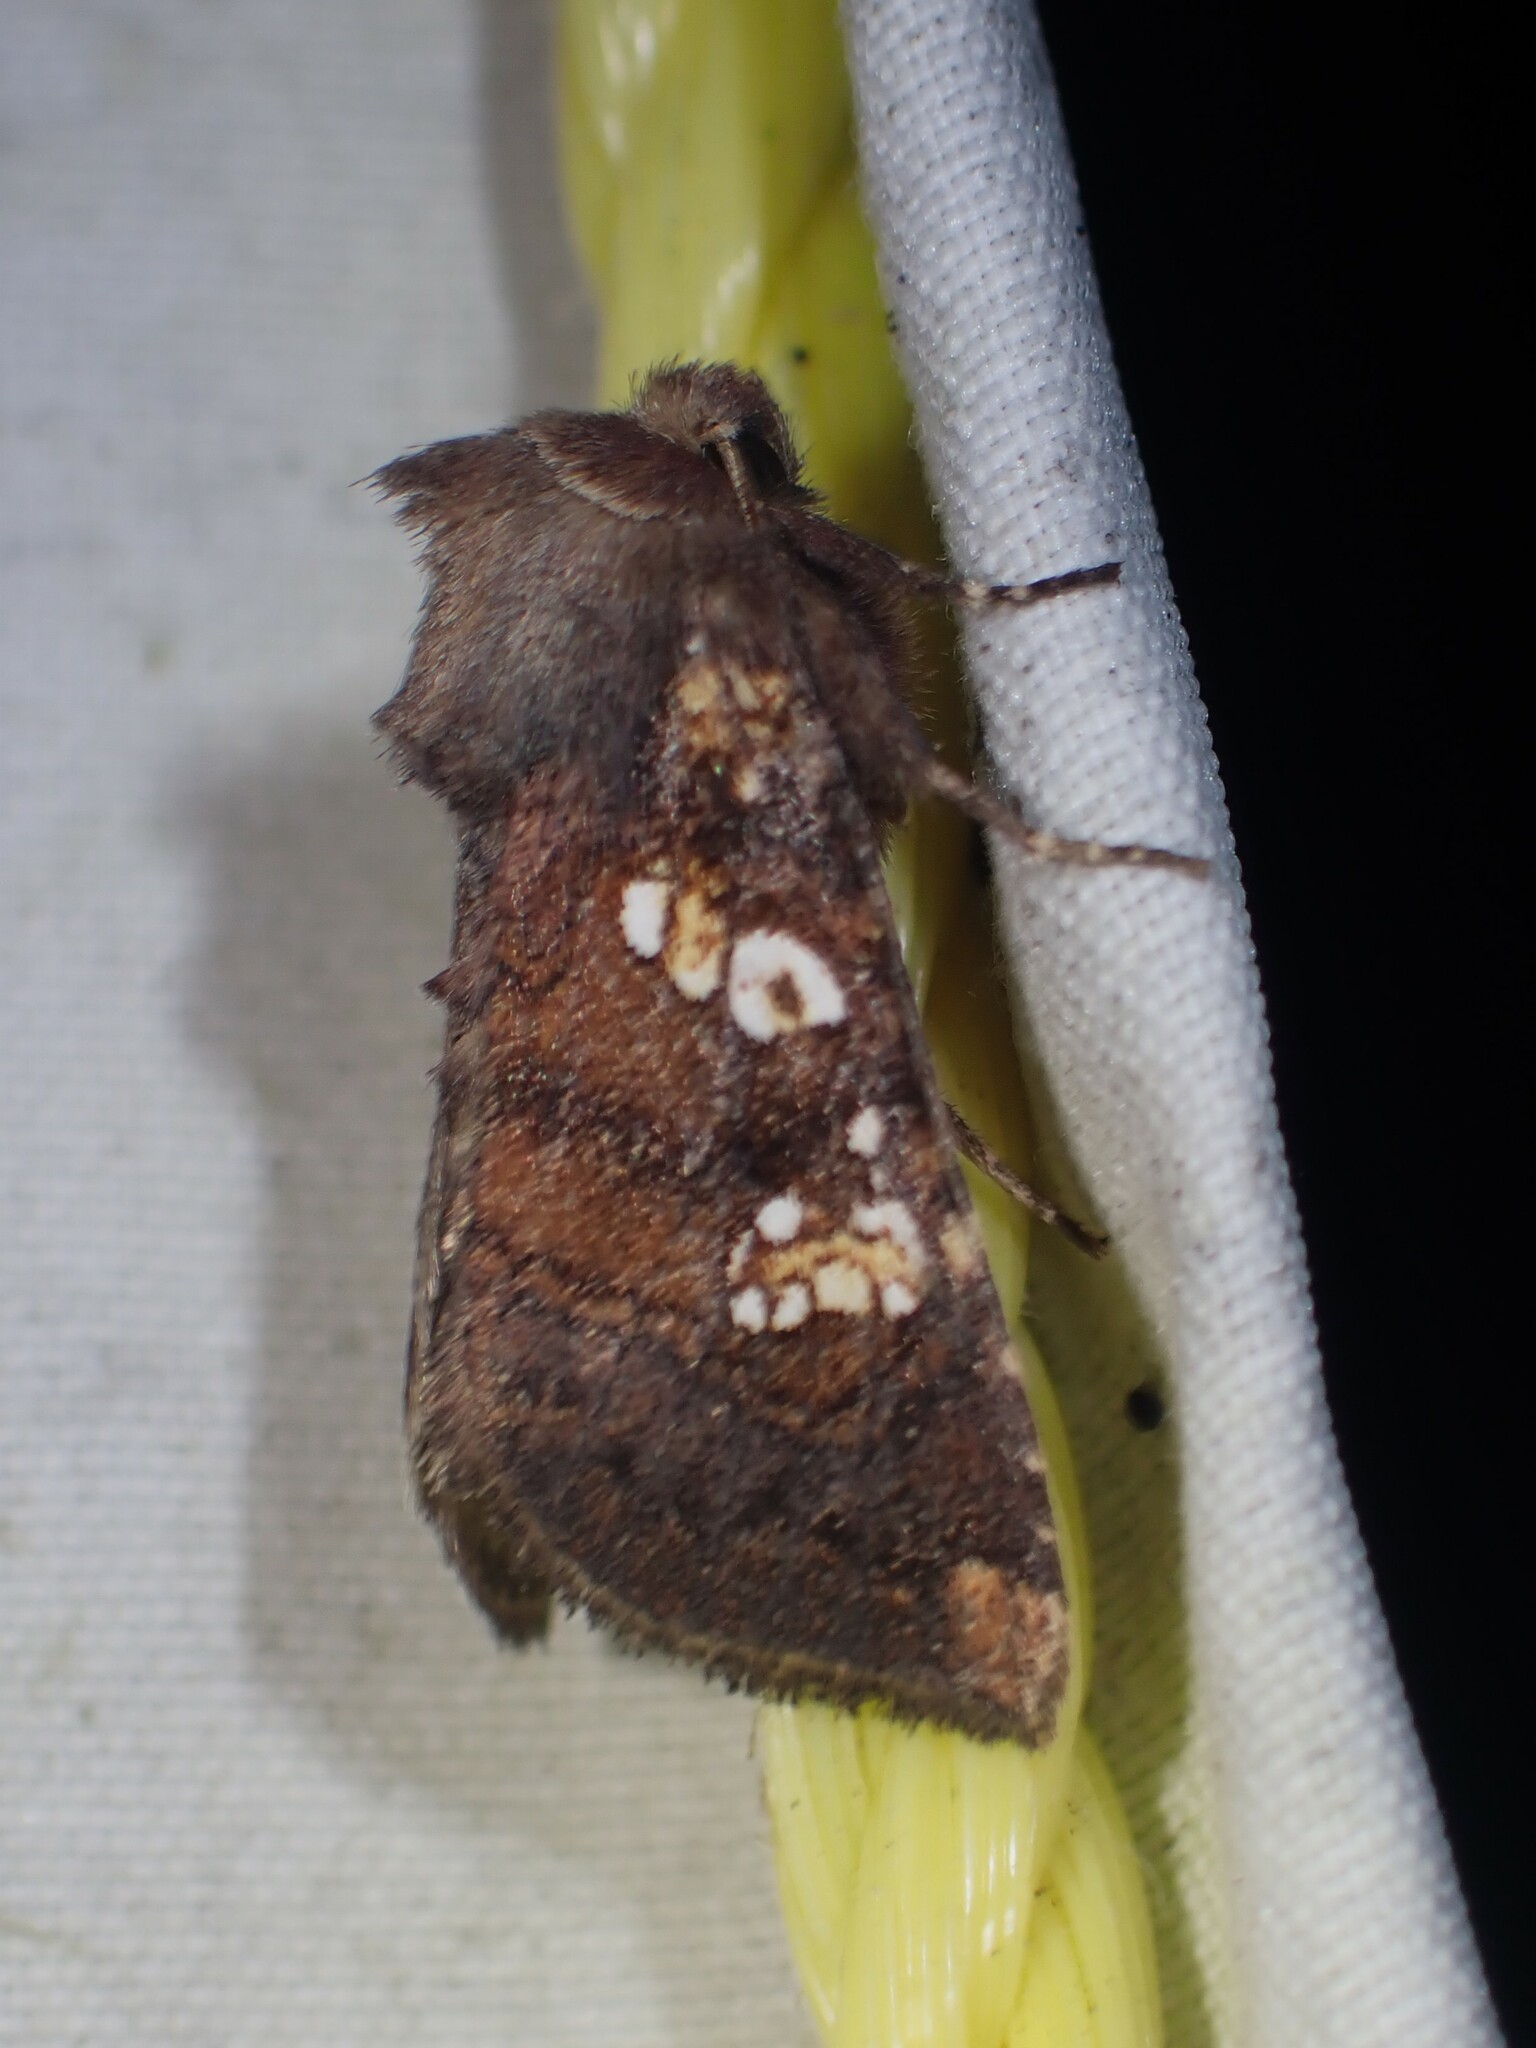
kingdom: Animalia
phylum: Arthropoda
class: Insecta
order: Lepidoptera
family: Noctuidae
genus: Papaipema
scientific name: Papaipema unimoda
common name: Meadow rue borer moth
